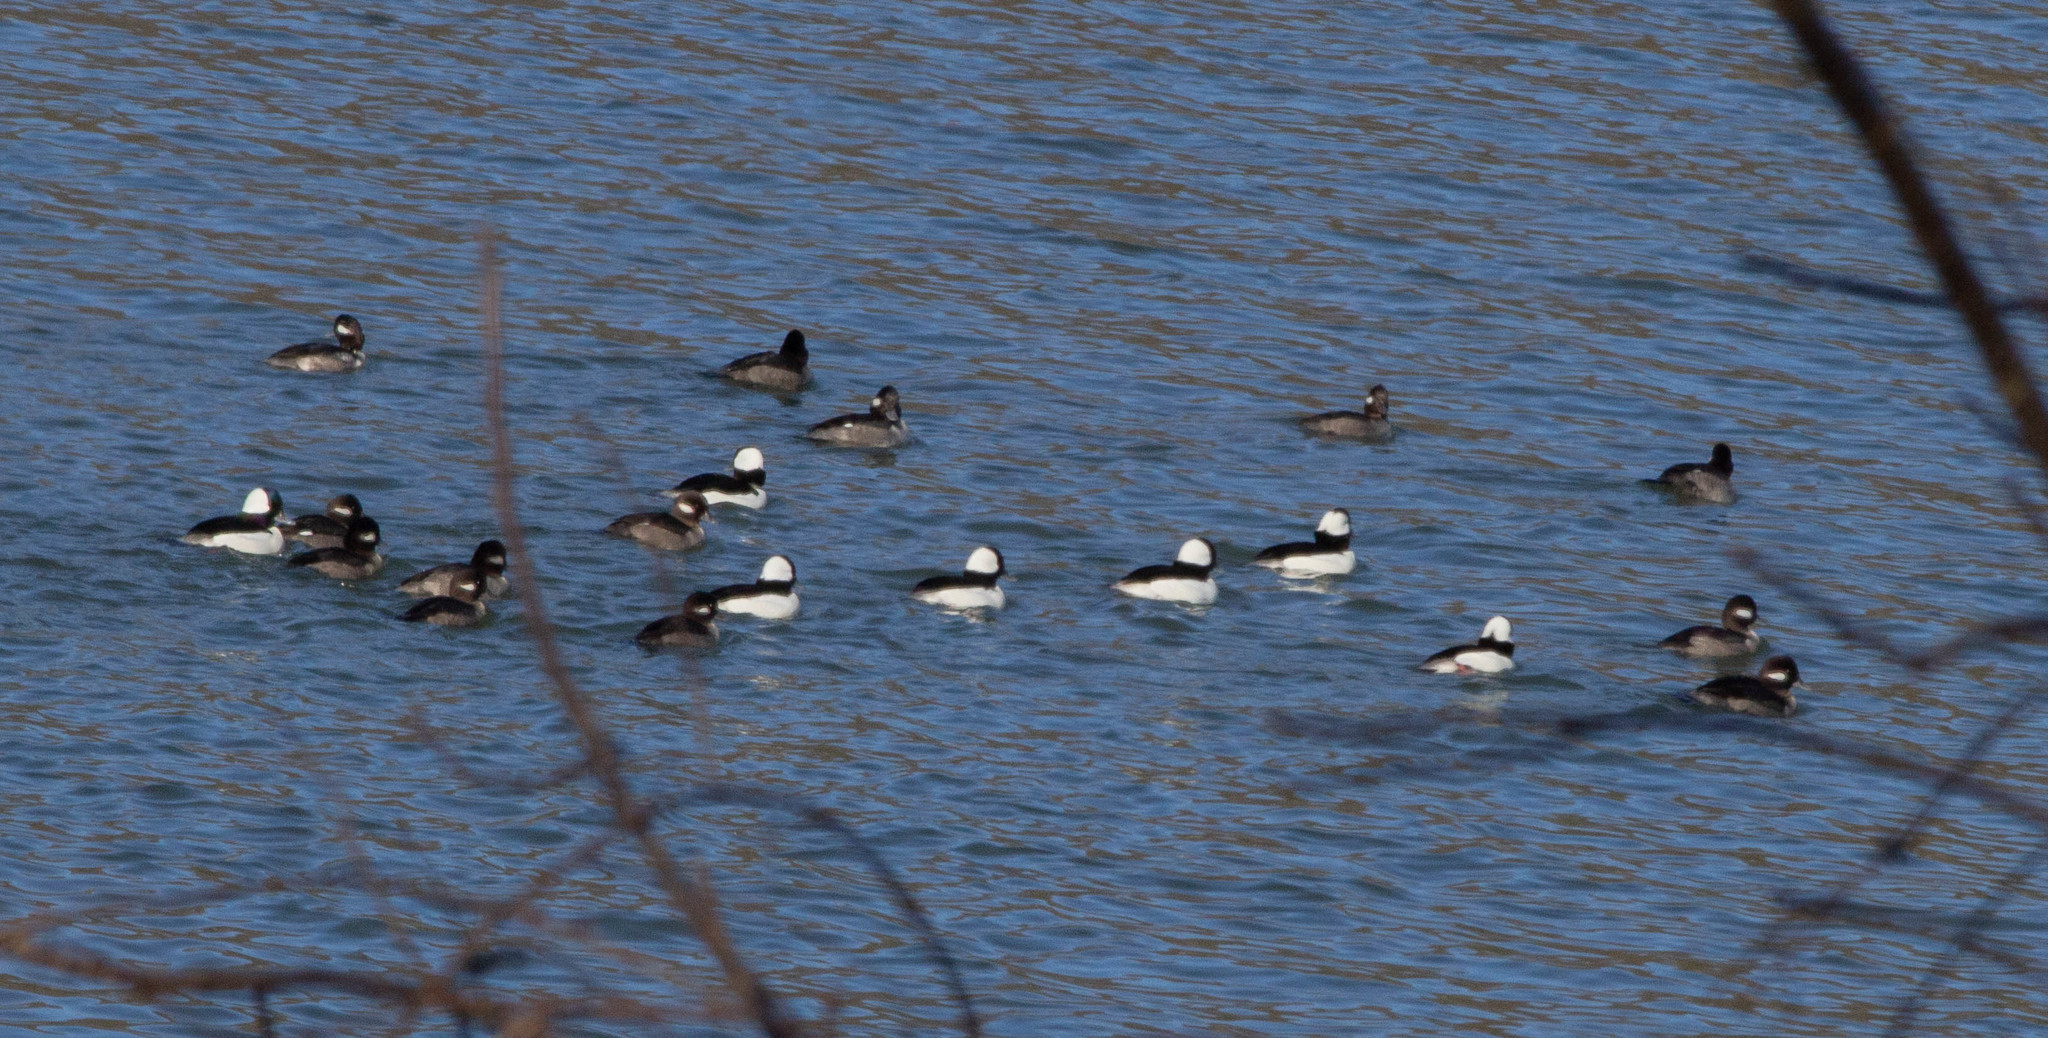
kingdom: Animalia
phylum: Chordata
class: Aves
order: Anseriformes
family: Anatidae
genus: Bucephala
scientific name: Bucephala albeola
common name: Bufflehead
